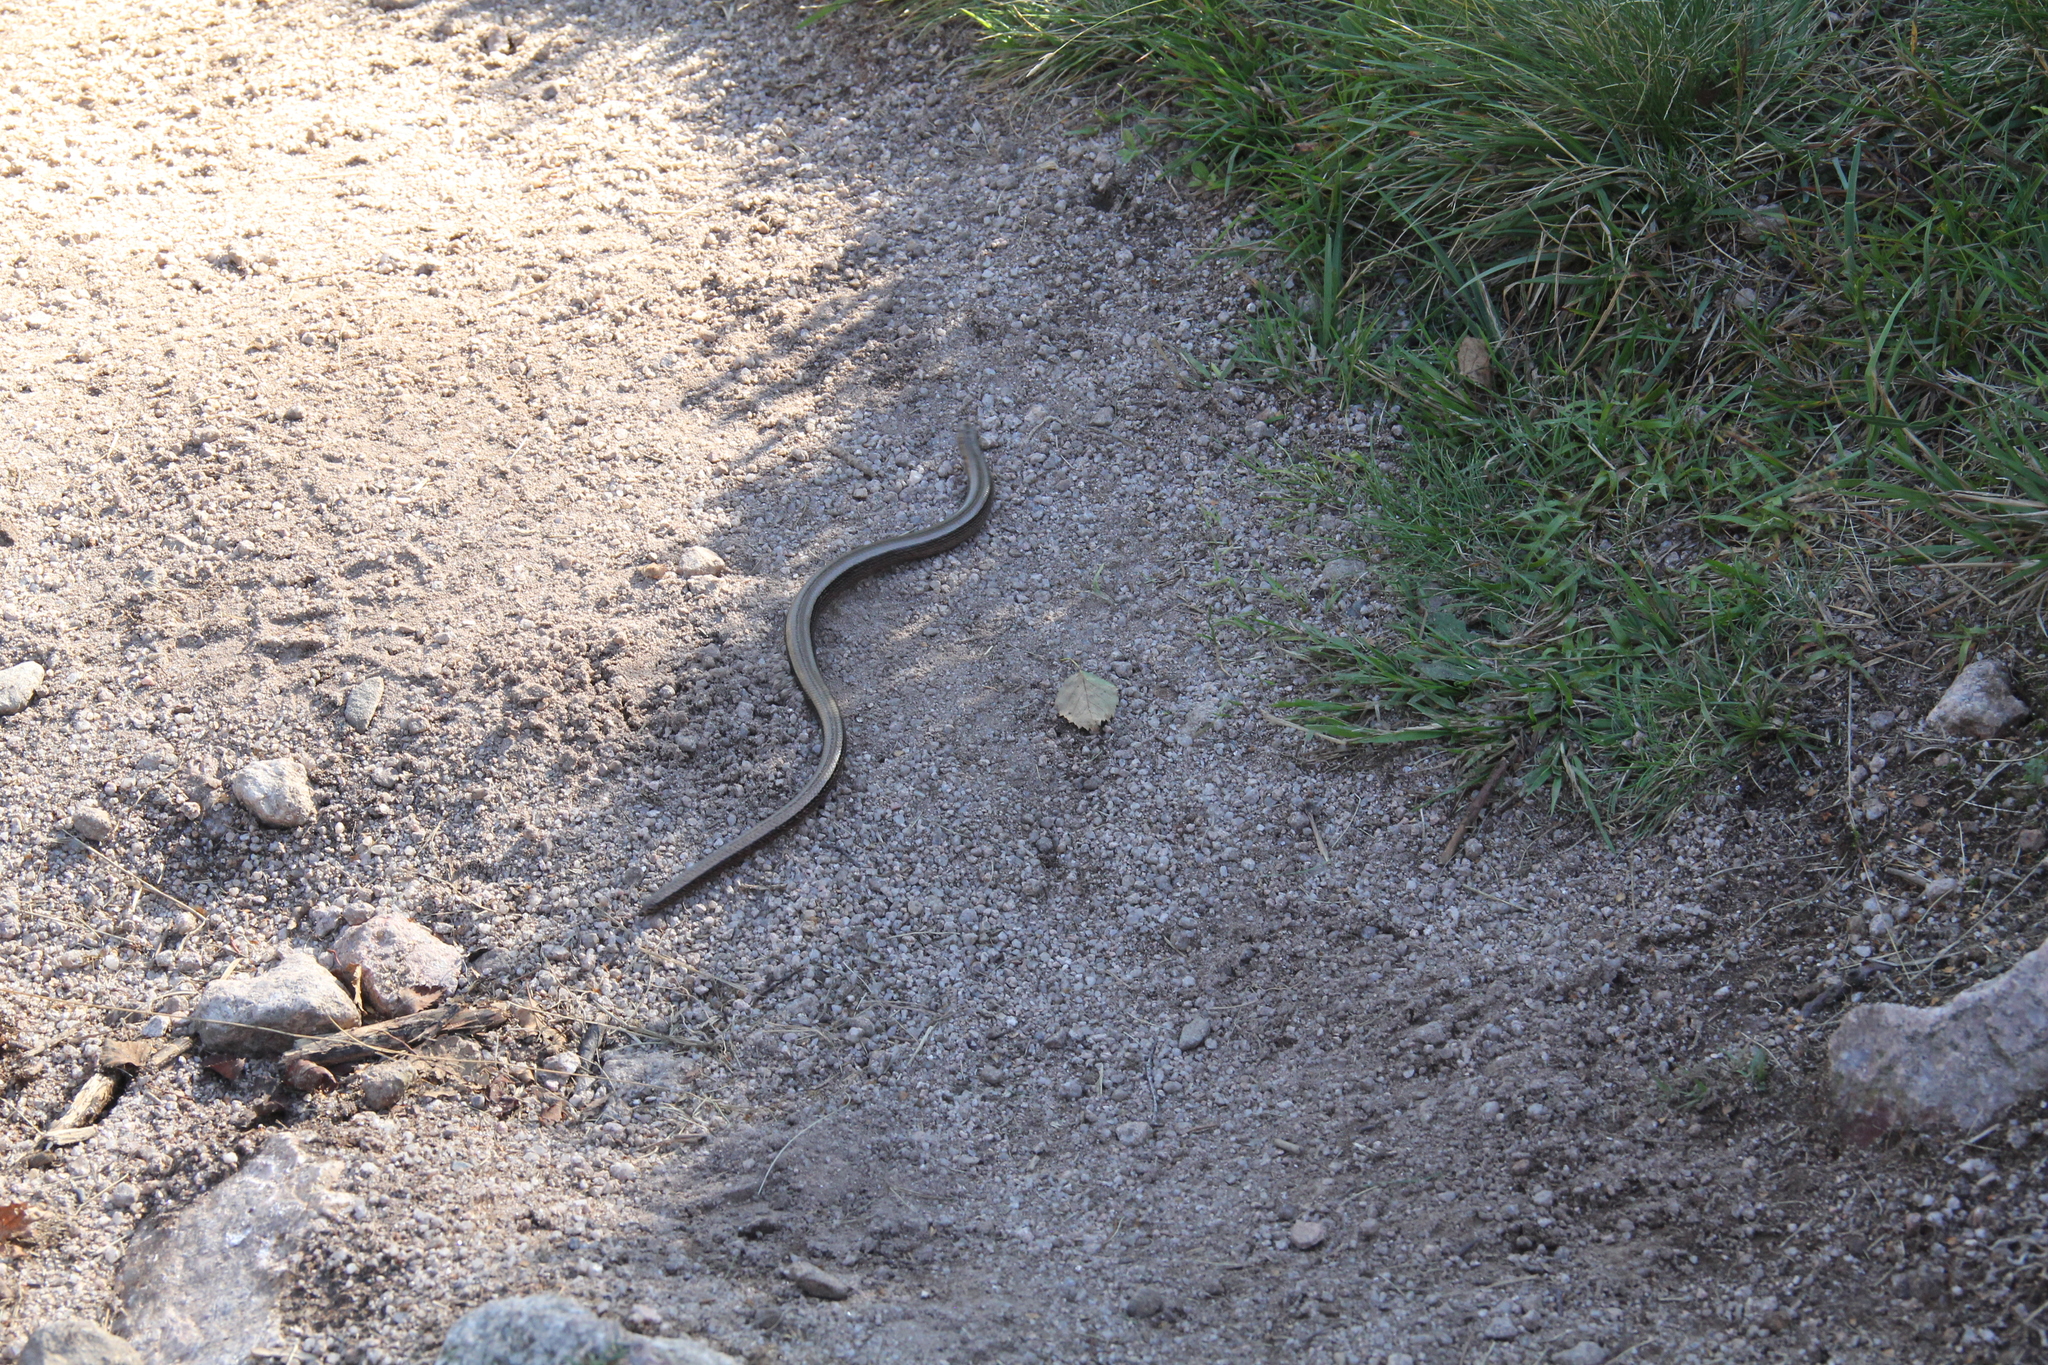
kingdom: Animalia
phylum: Chordata
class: Squamata
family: Anguidae
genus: Anguis
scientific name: Anguis fragilis
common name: Slow worm
